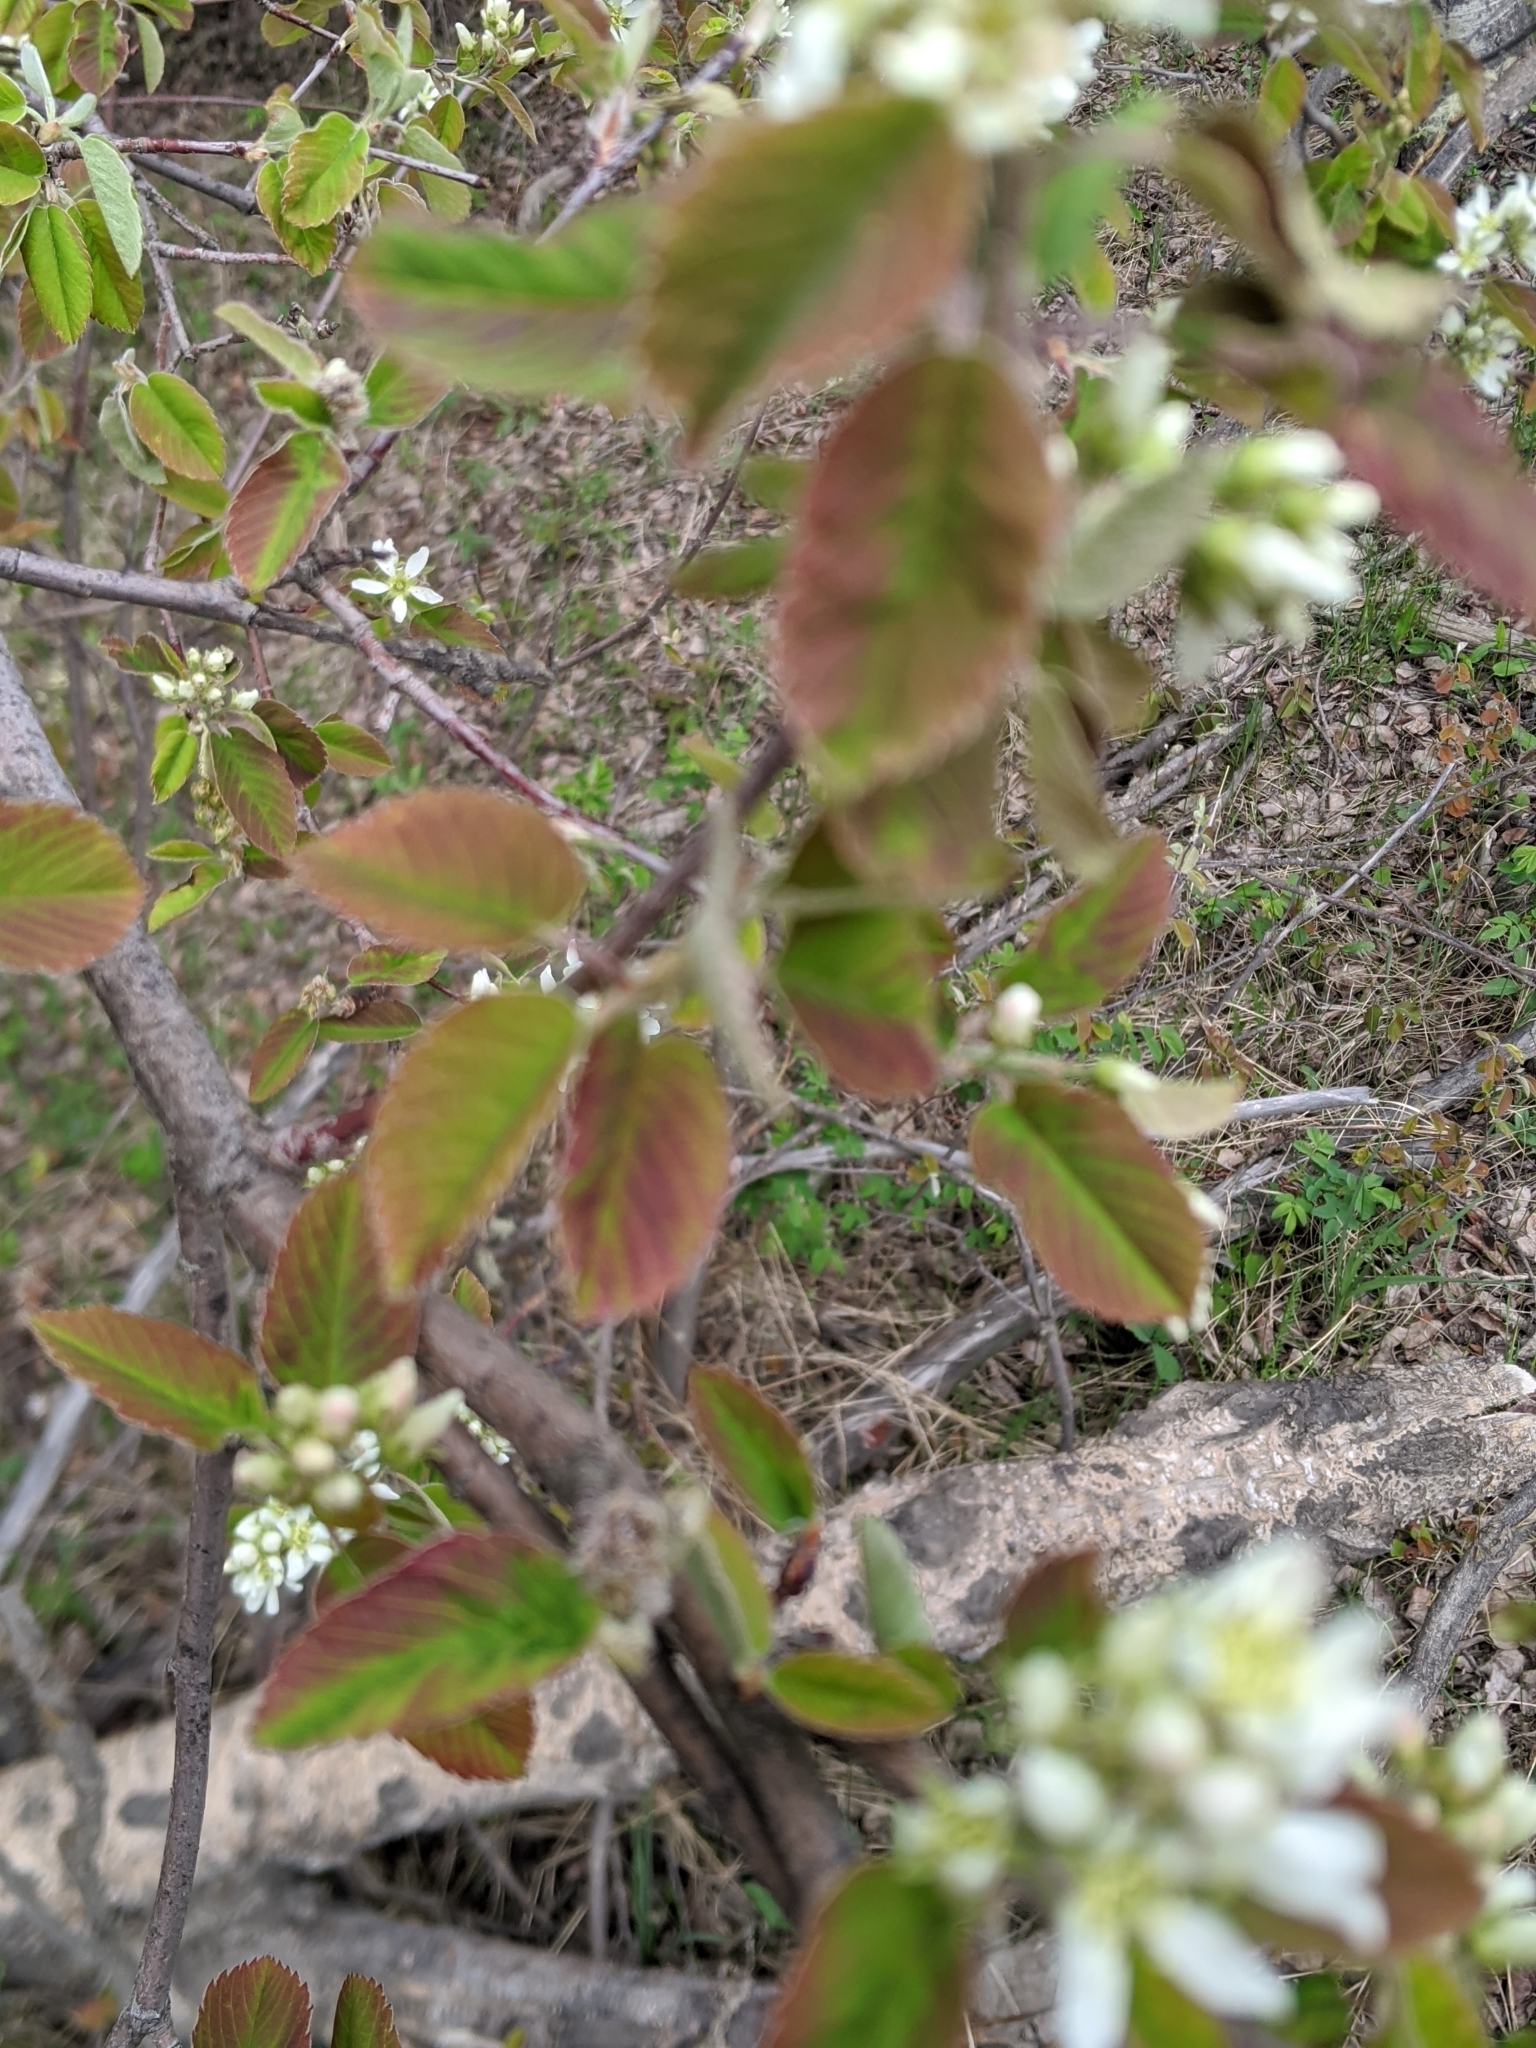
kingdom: Plantae
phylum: Tracheophyta
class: Magnoliopsida
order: Rosales
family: Rosaceae
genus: Amelanchier
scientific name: Amelanchier alnifolia
